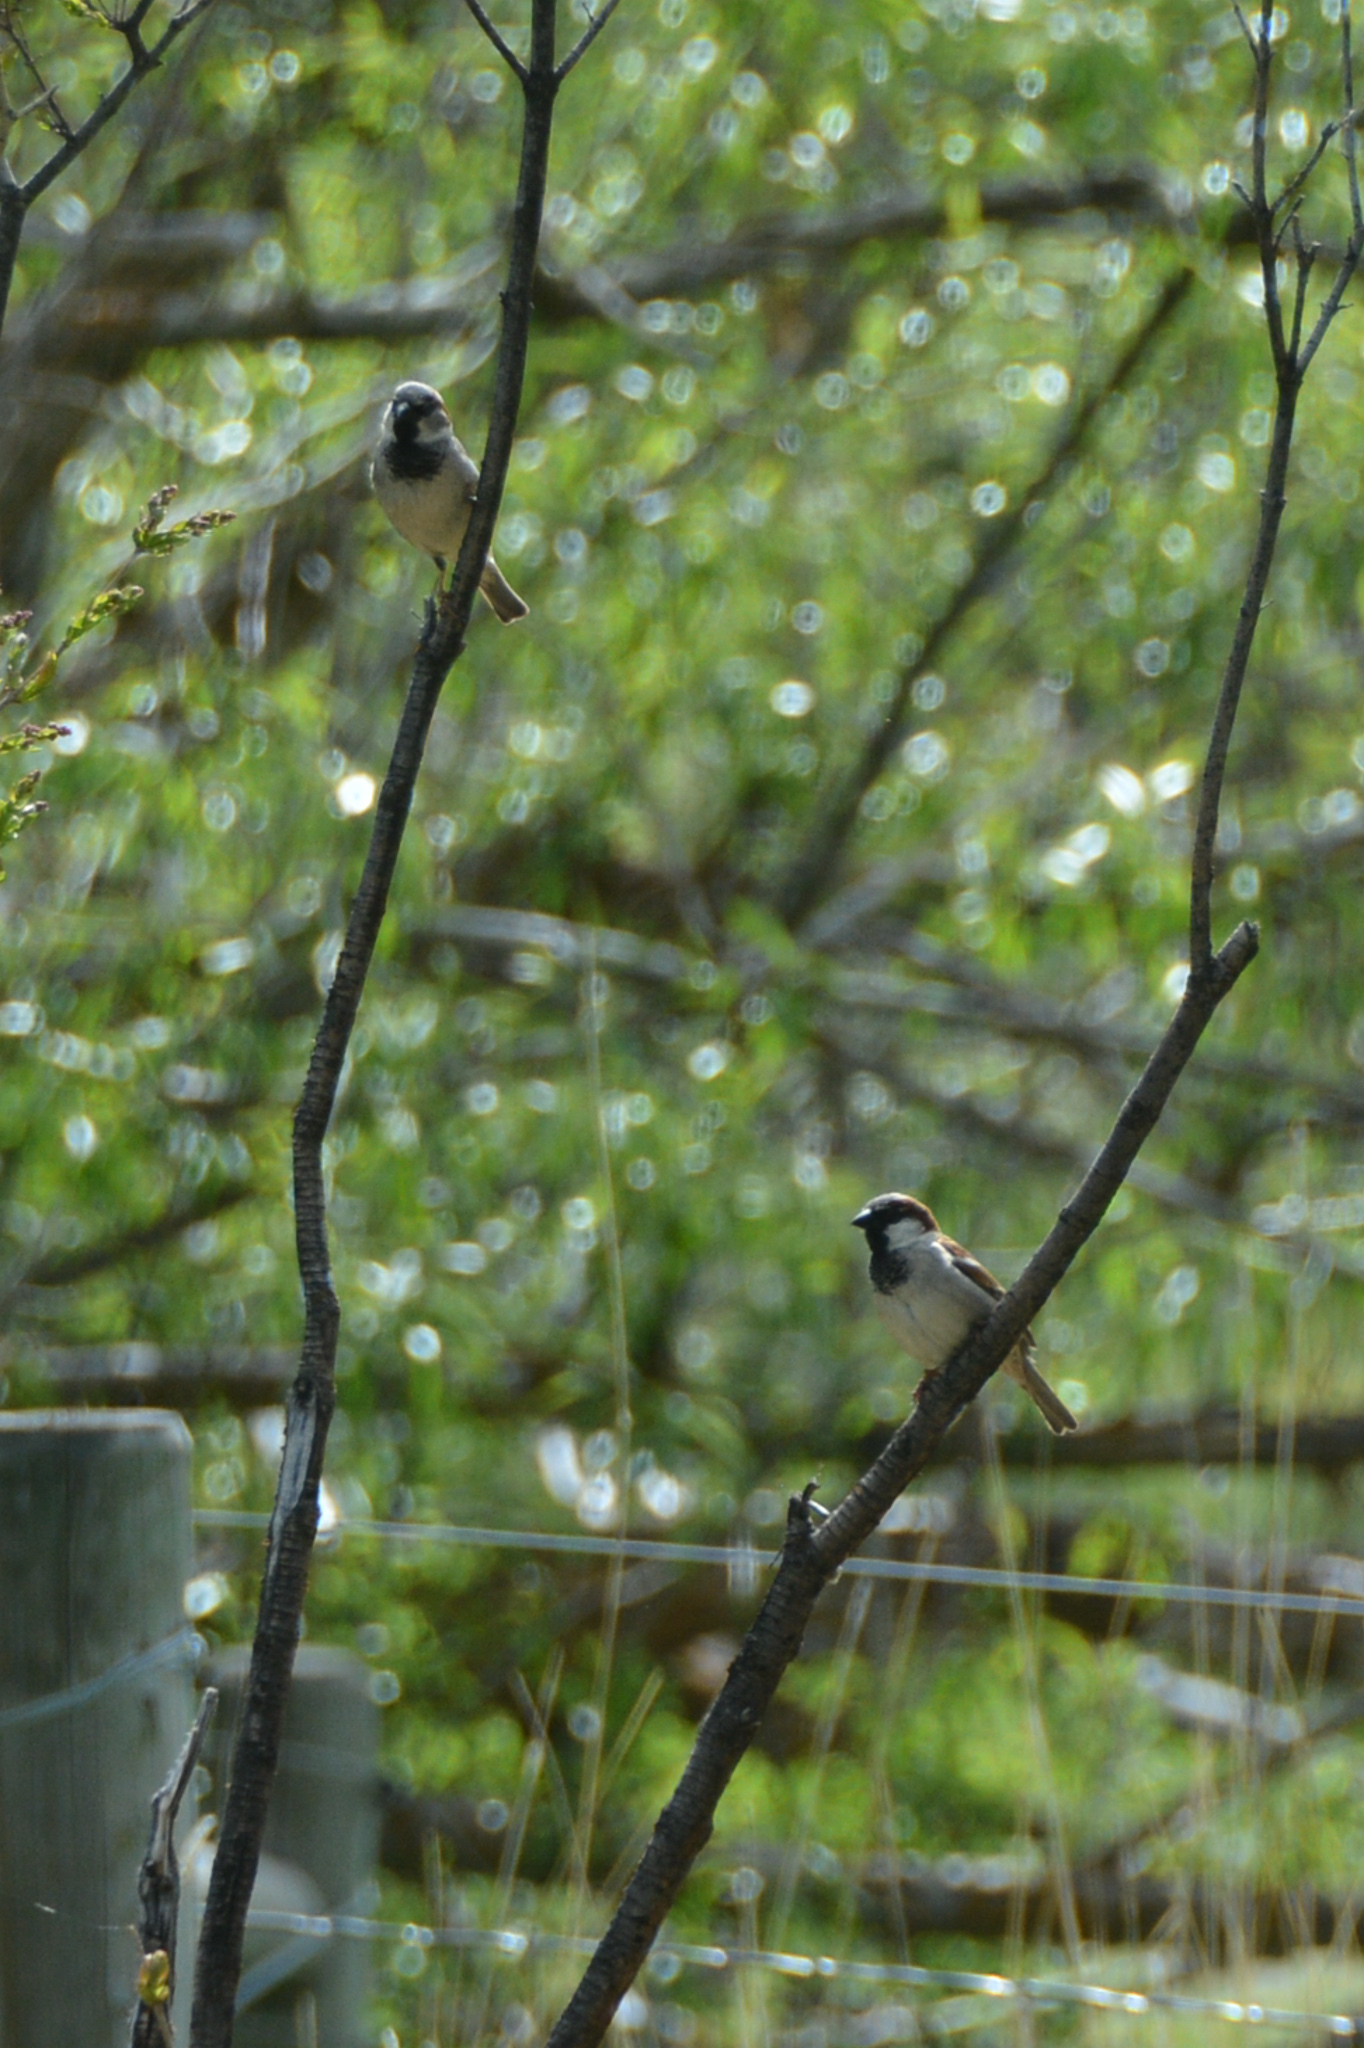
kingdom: Animalia
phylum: Chordata
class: Aves
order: Passeriformes
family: Passeridae
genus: Passer
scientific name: Passer domesticus
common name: House sparrow
